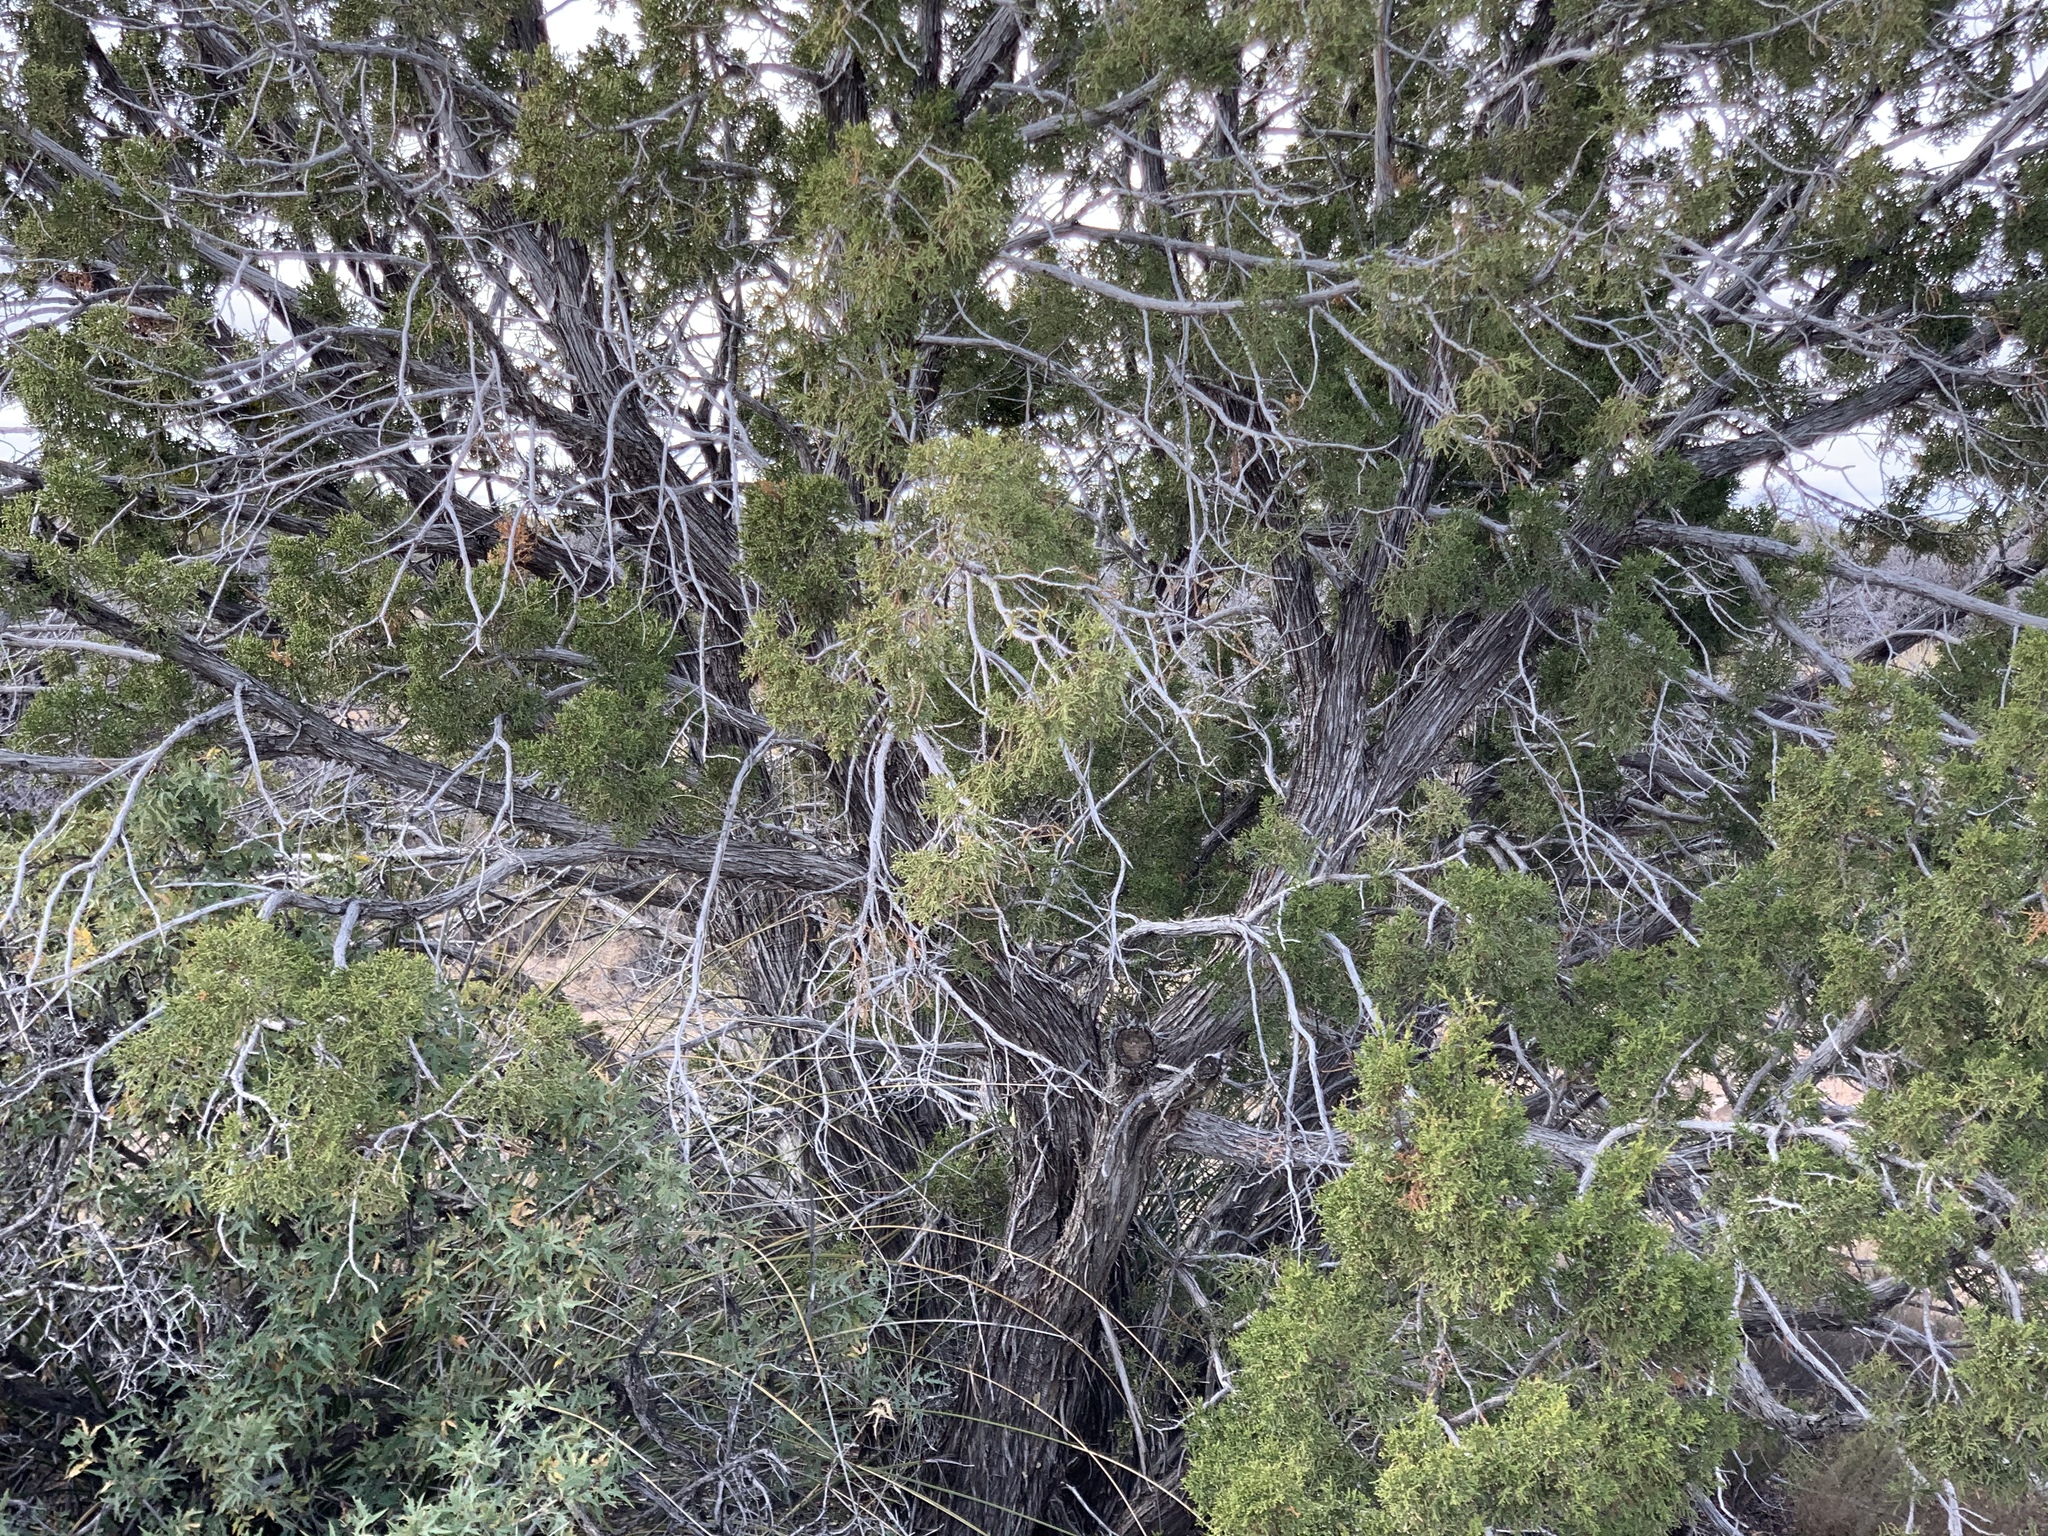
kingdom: Plantae
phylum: Tracheophyta
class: Pinopsida
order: Pinales
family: Cupressaceae
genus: Juniperus
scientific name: Juniperus monosperma
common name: One-seed juniper
